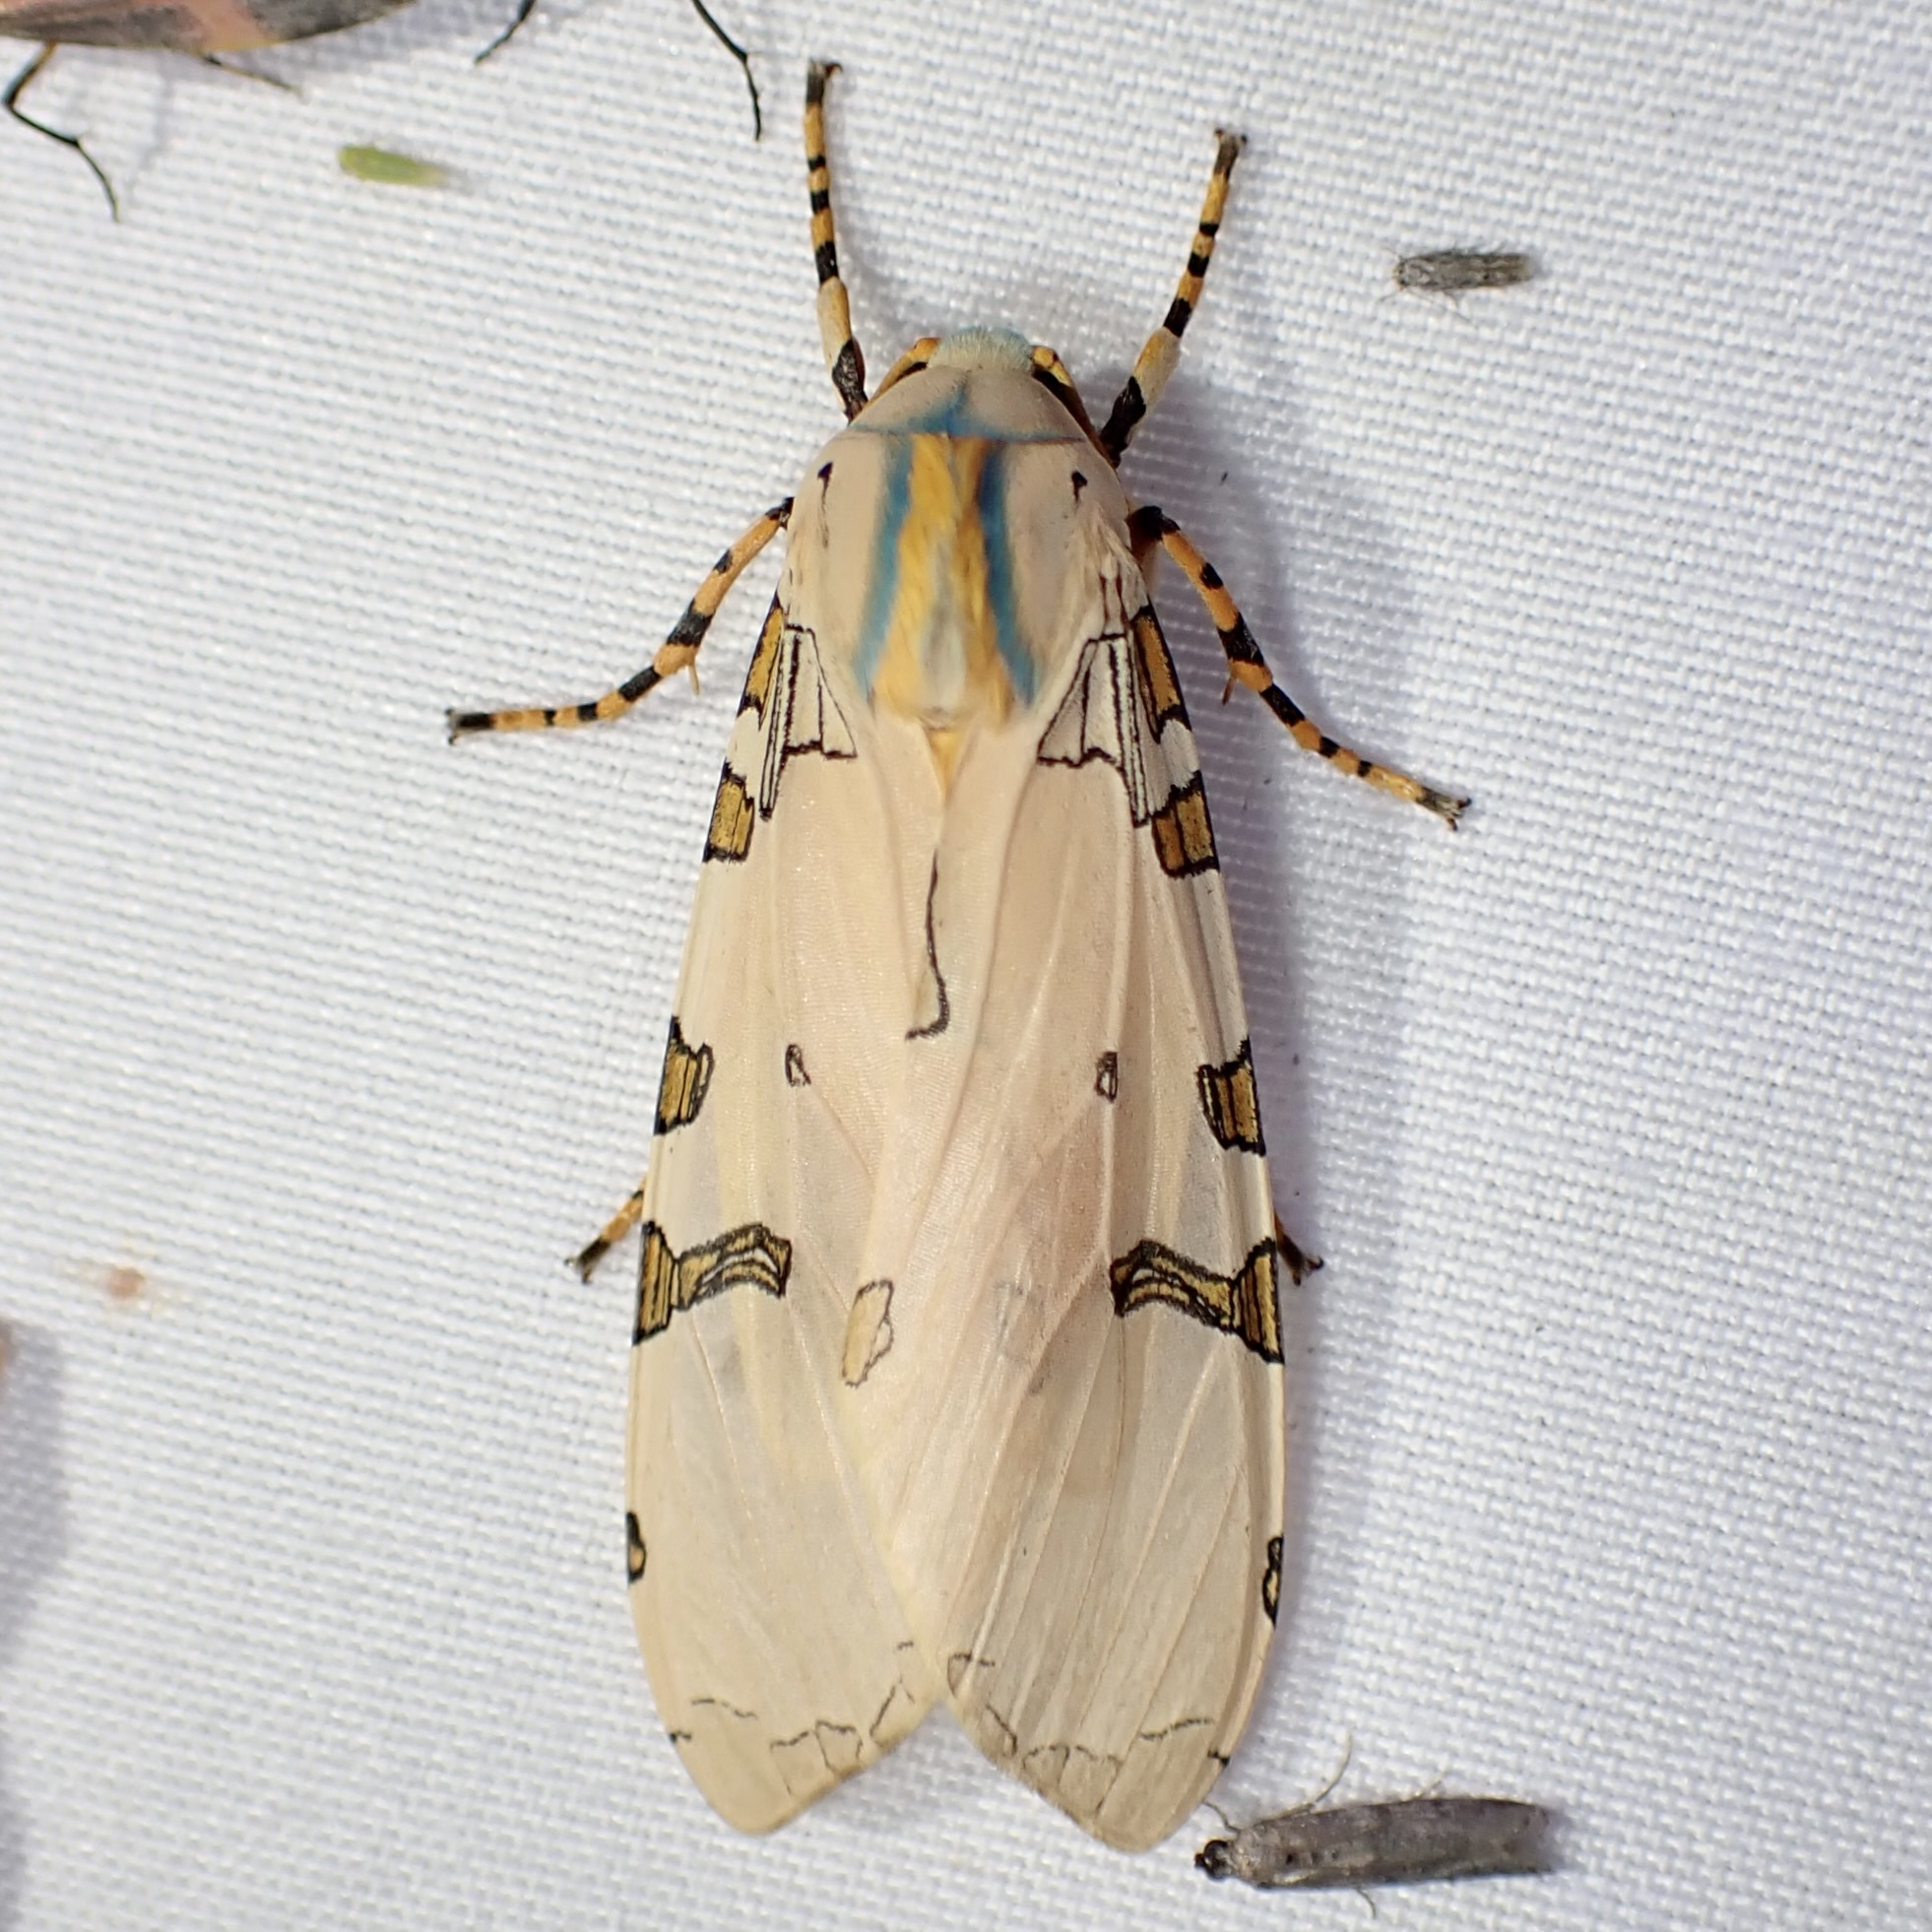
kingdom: Animalia
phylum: Arthropoda
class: Insecta
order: Lepidoptera
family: Erebidae
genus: Halysidota
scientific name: Halysidota davisii
